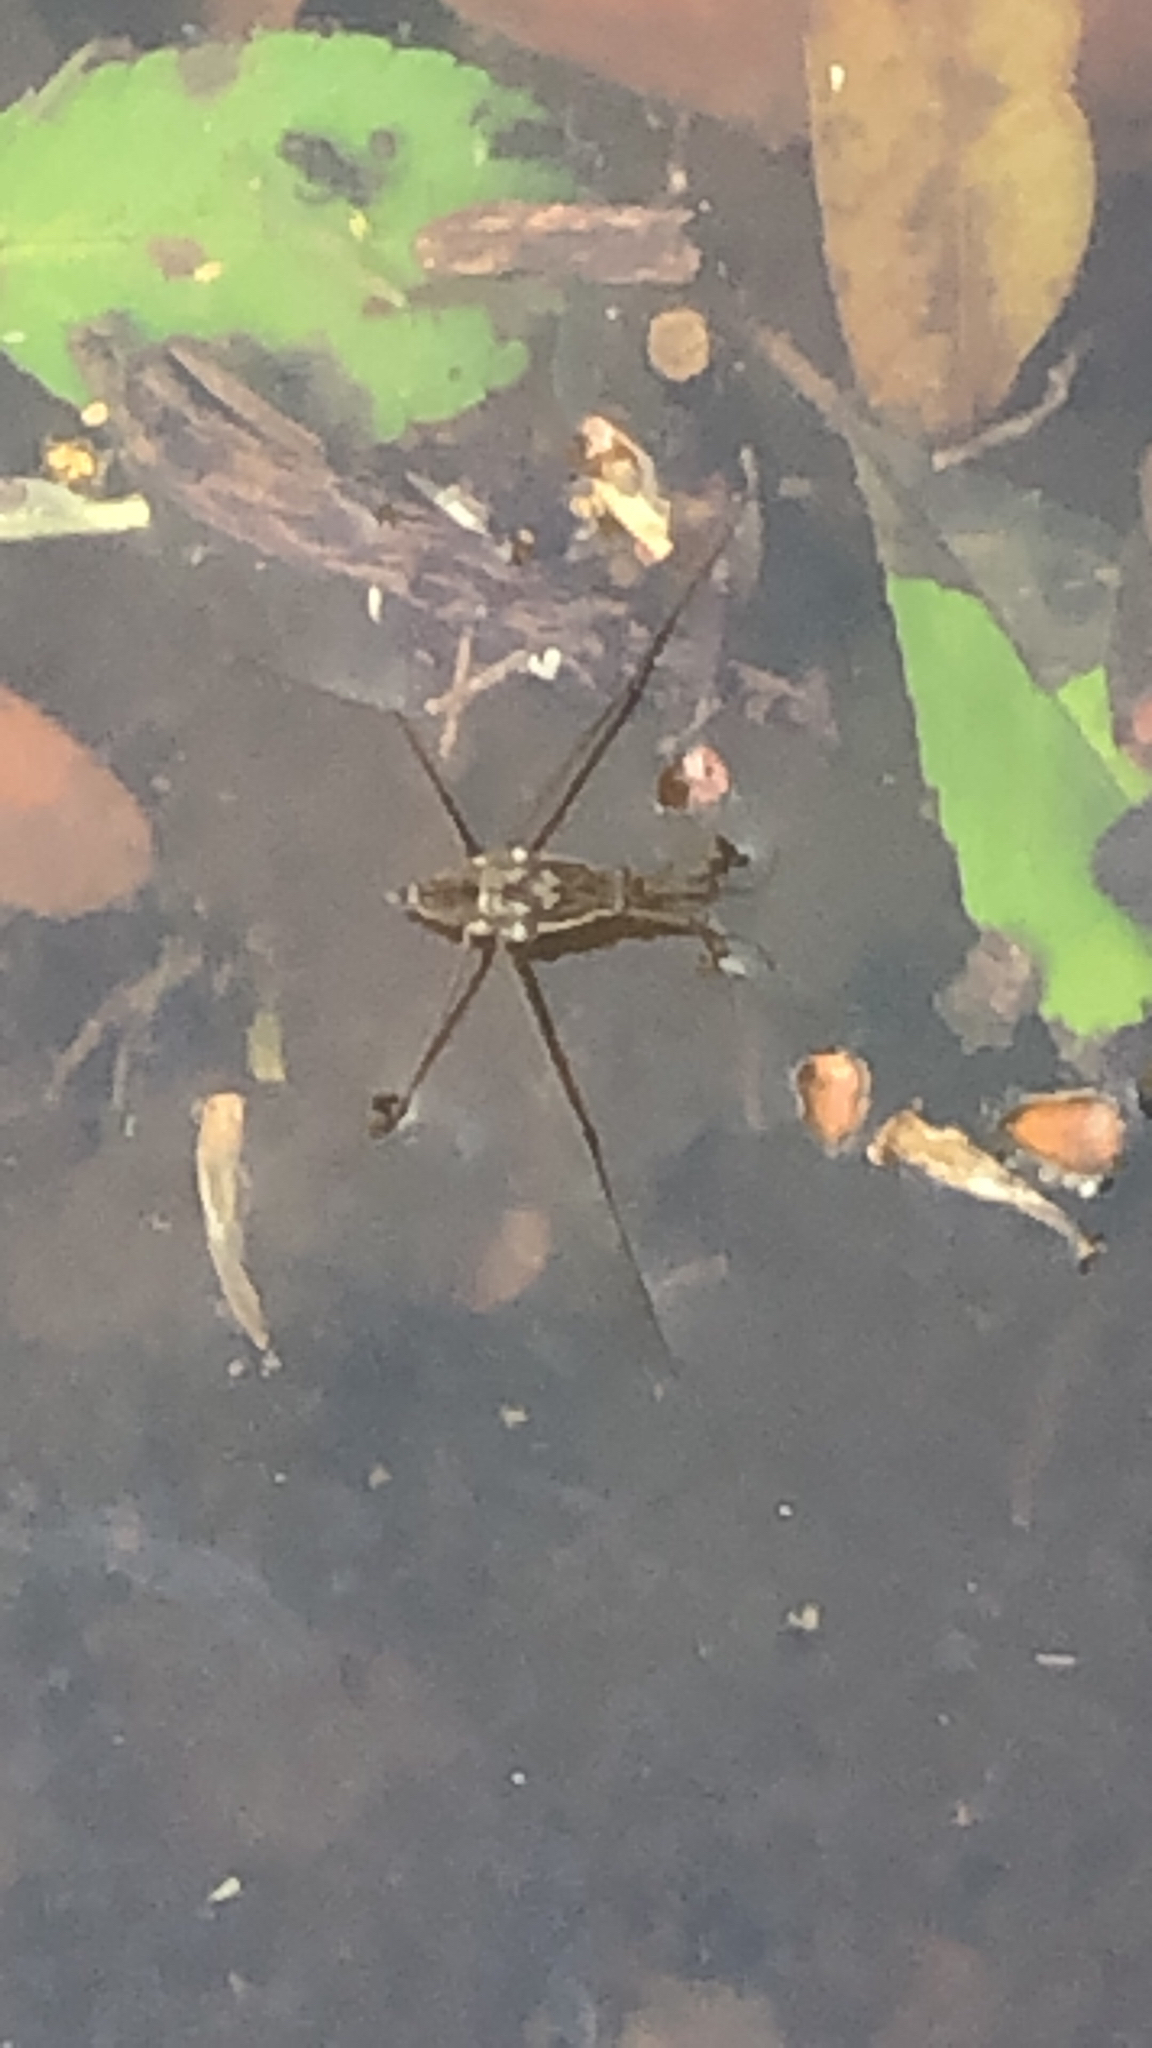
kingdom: Animalia
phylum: Arthropoda
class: Insecta
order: Hemiptera
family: Gerridae
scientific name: Gerridae
